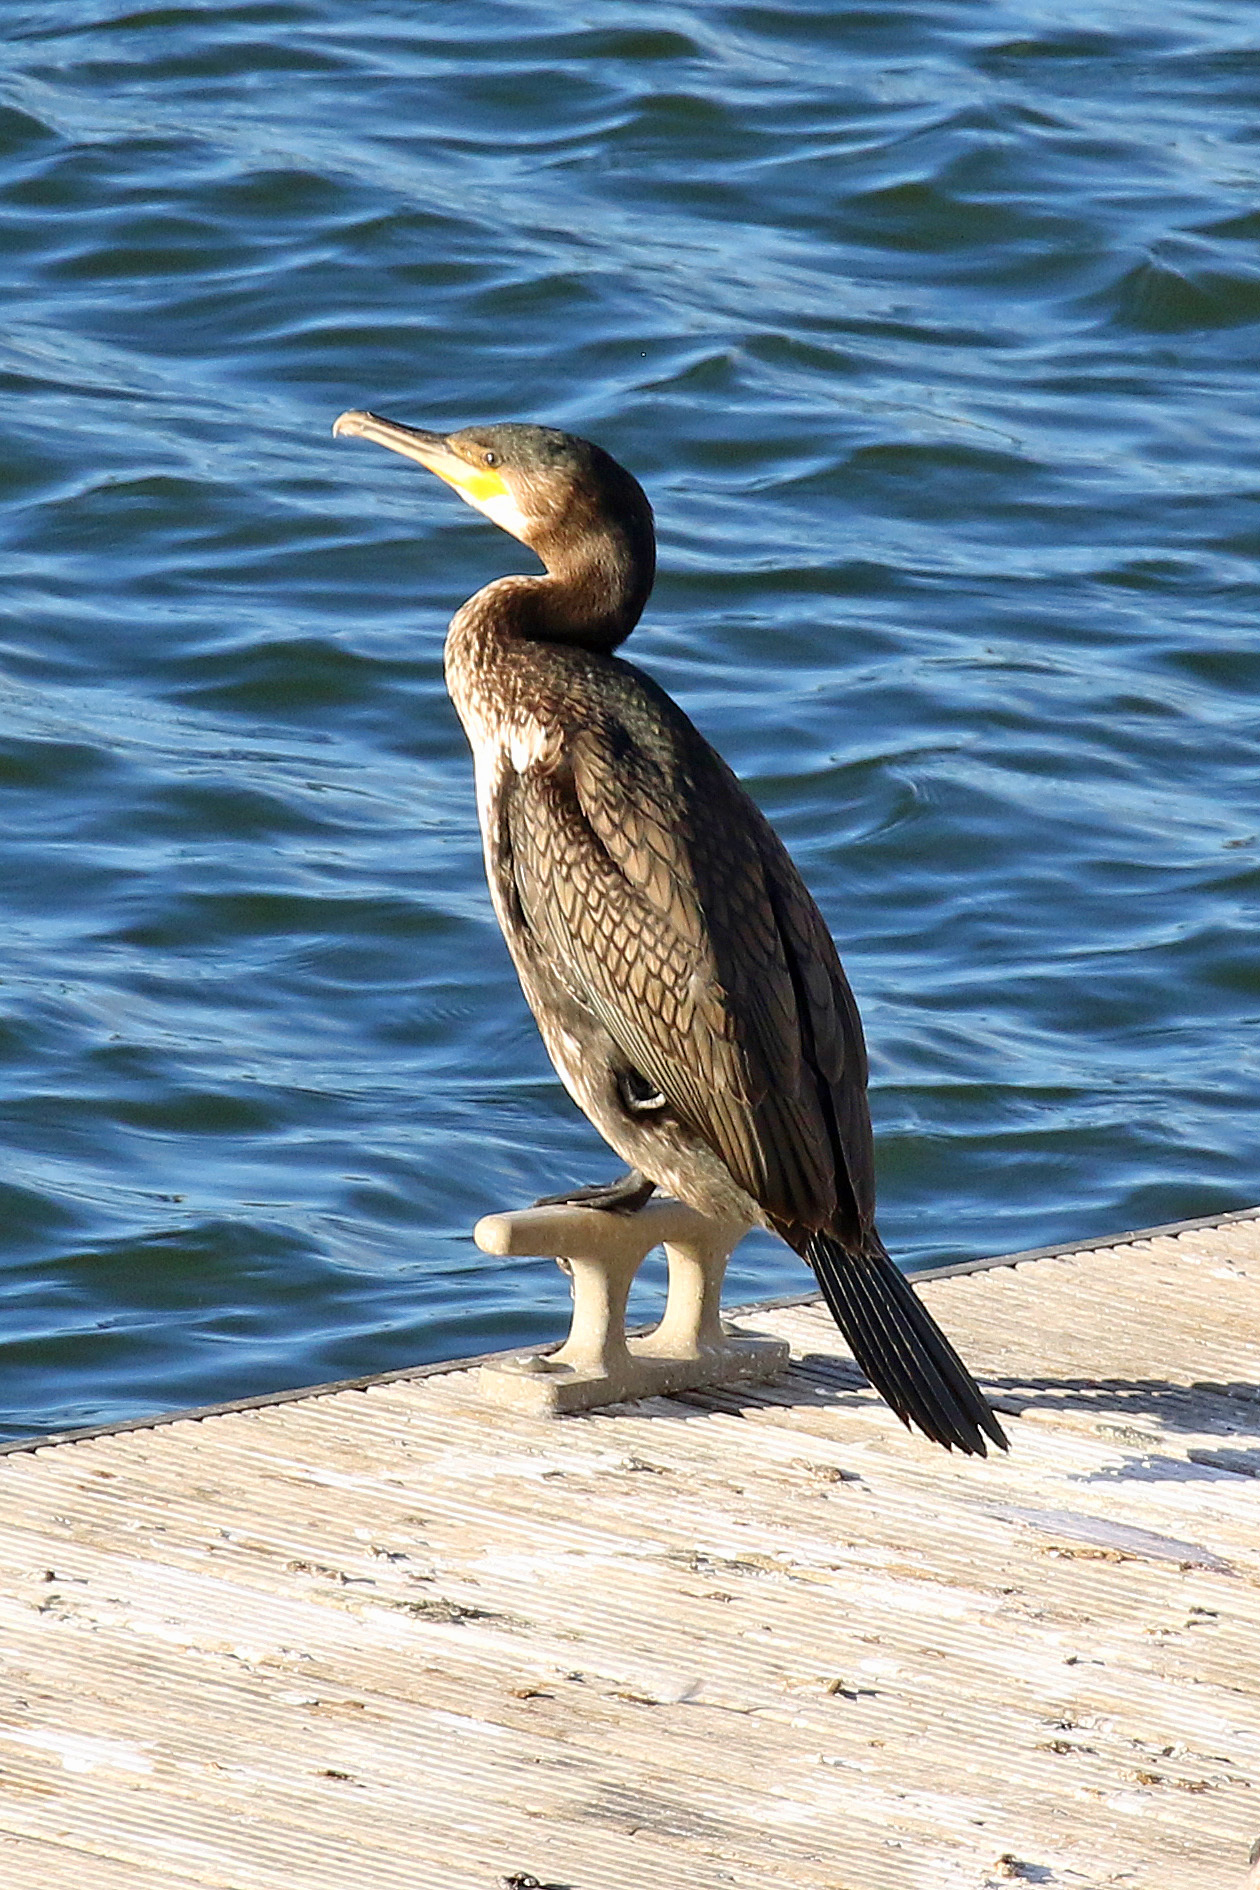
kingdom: Animalia
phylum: Chordata
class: Aves
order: Suliformes
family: Phalacrocoracidae
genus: Phalacrocorax
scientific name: Phalacrocorax carbo
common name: Great cormorant
